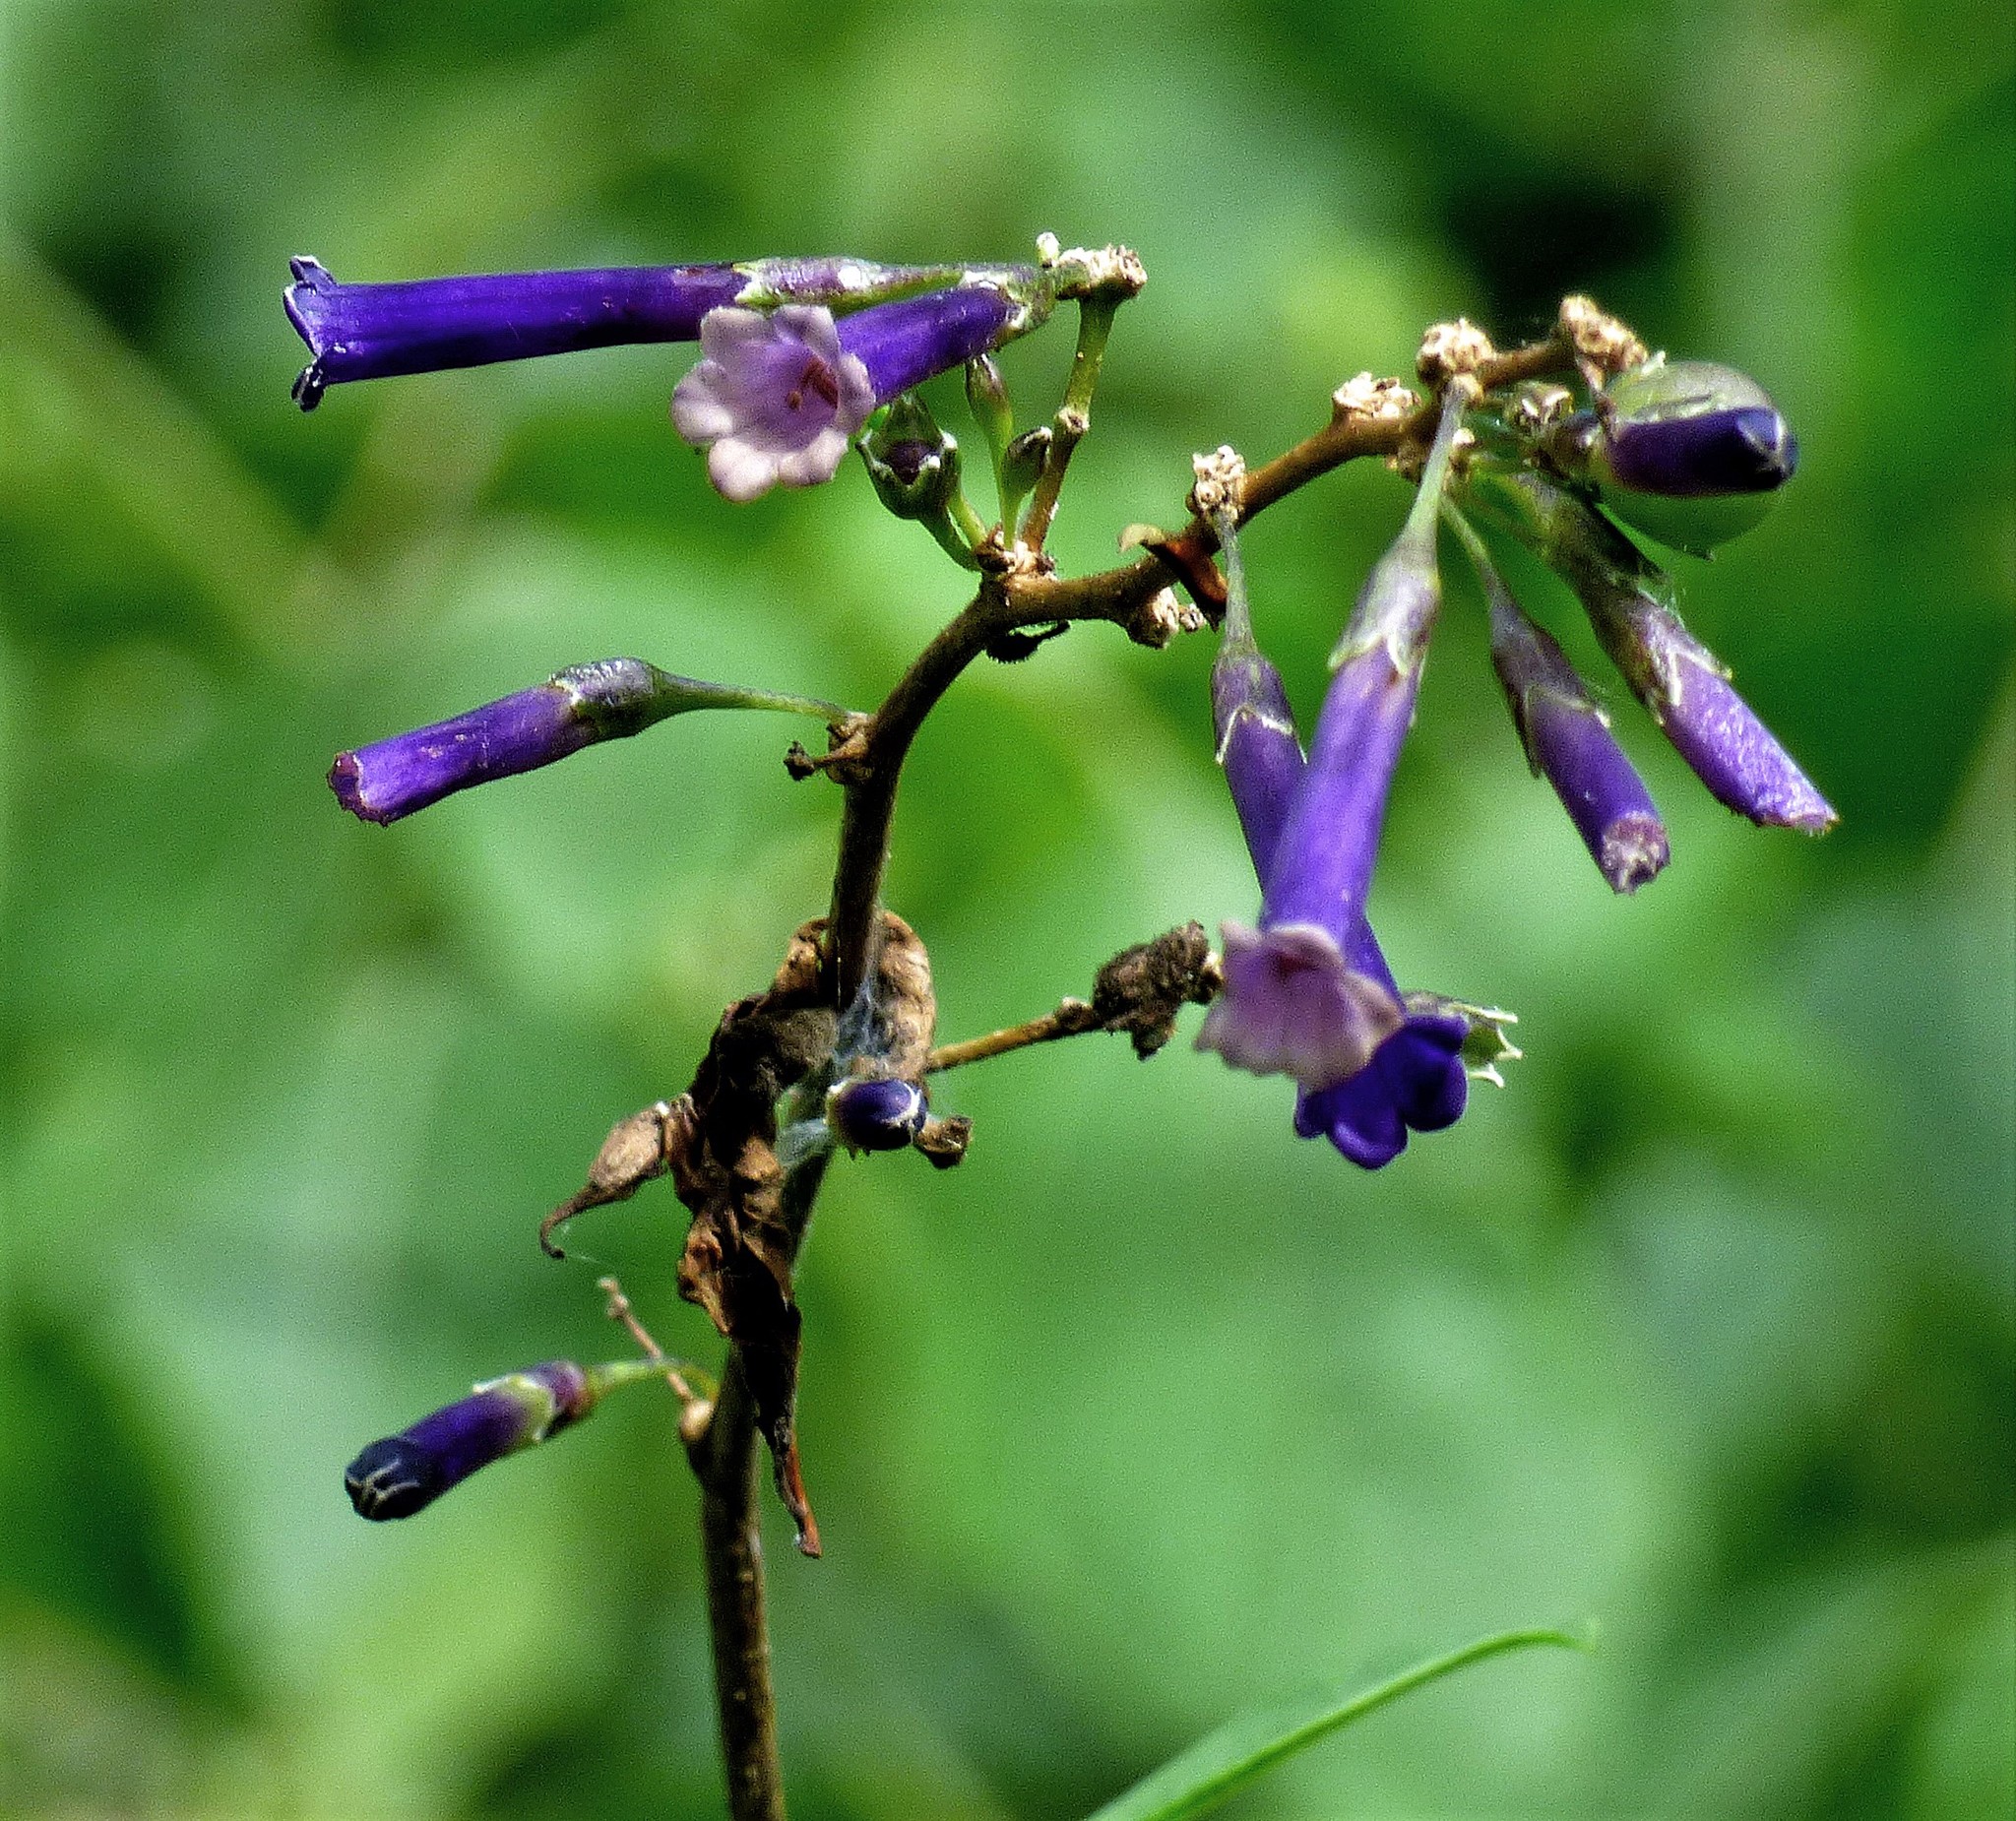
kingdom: Plantae
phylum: Tracheophyta
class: Magnoliopsida
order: Solanales
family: Solanaceae
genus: Dunalia
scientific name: Dunalia brachyacantha
